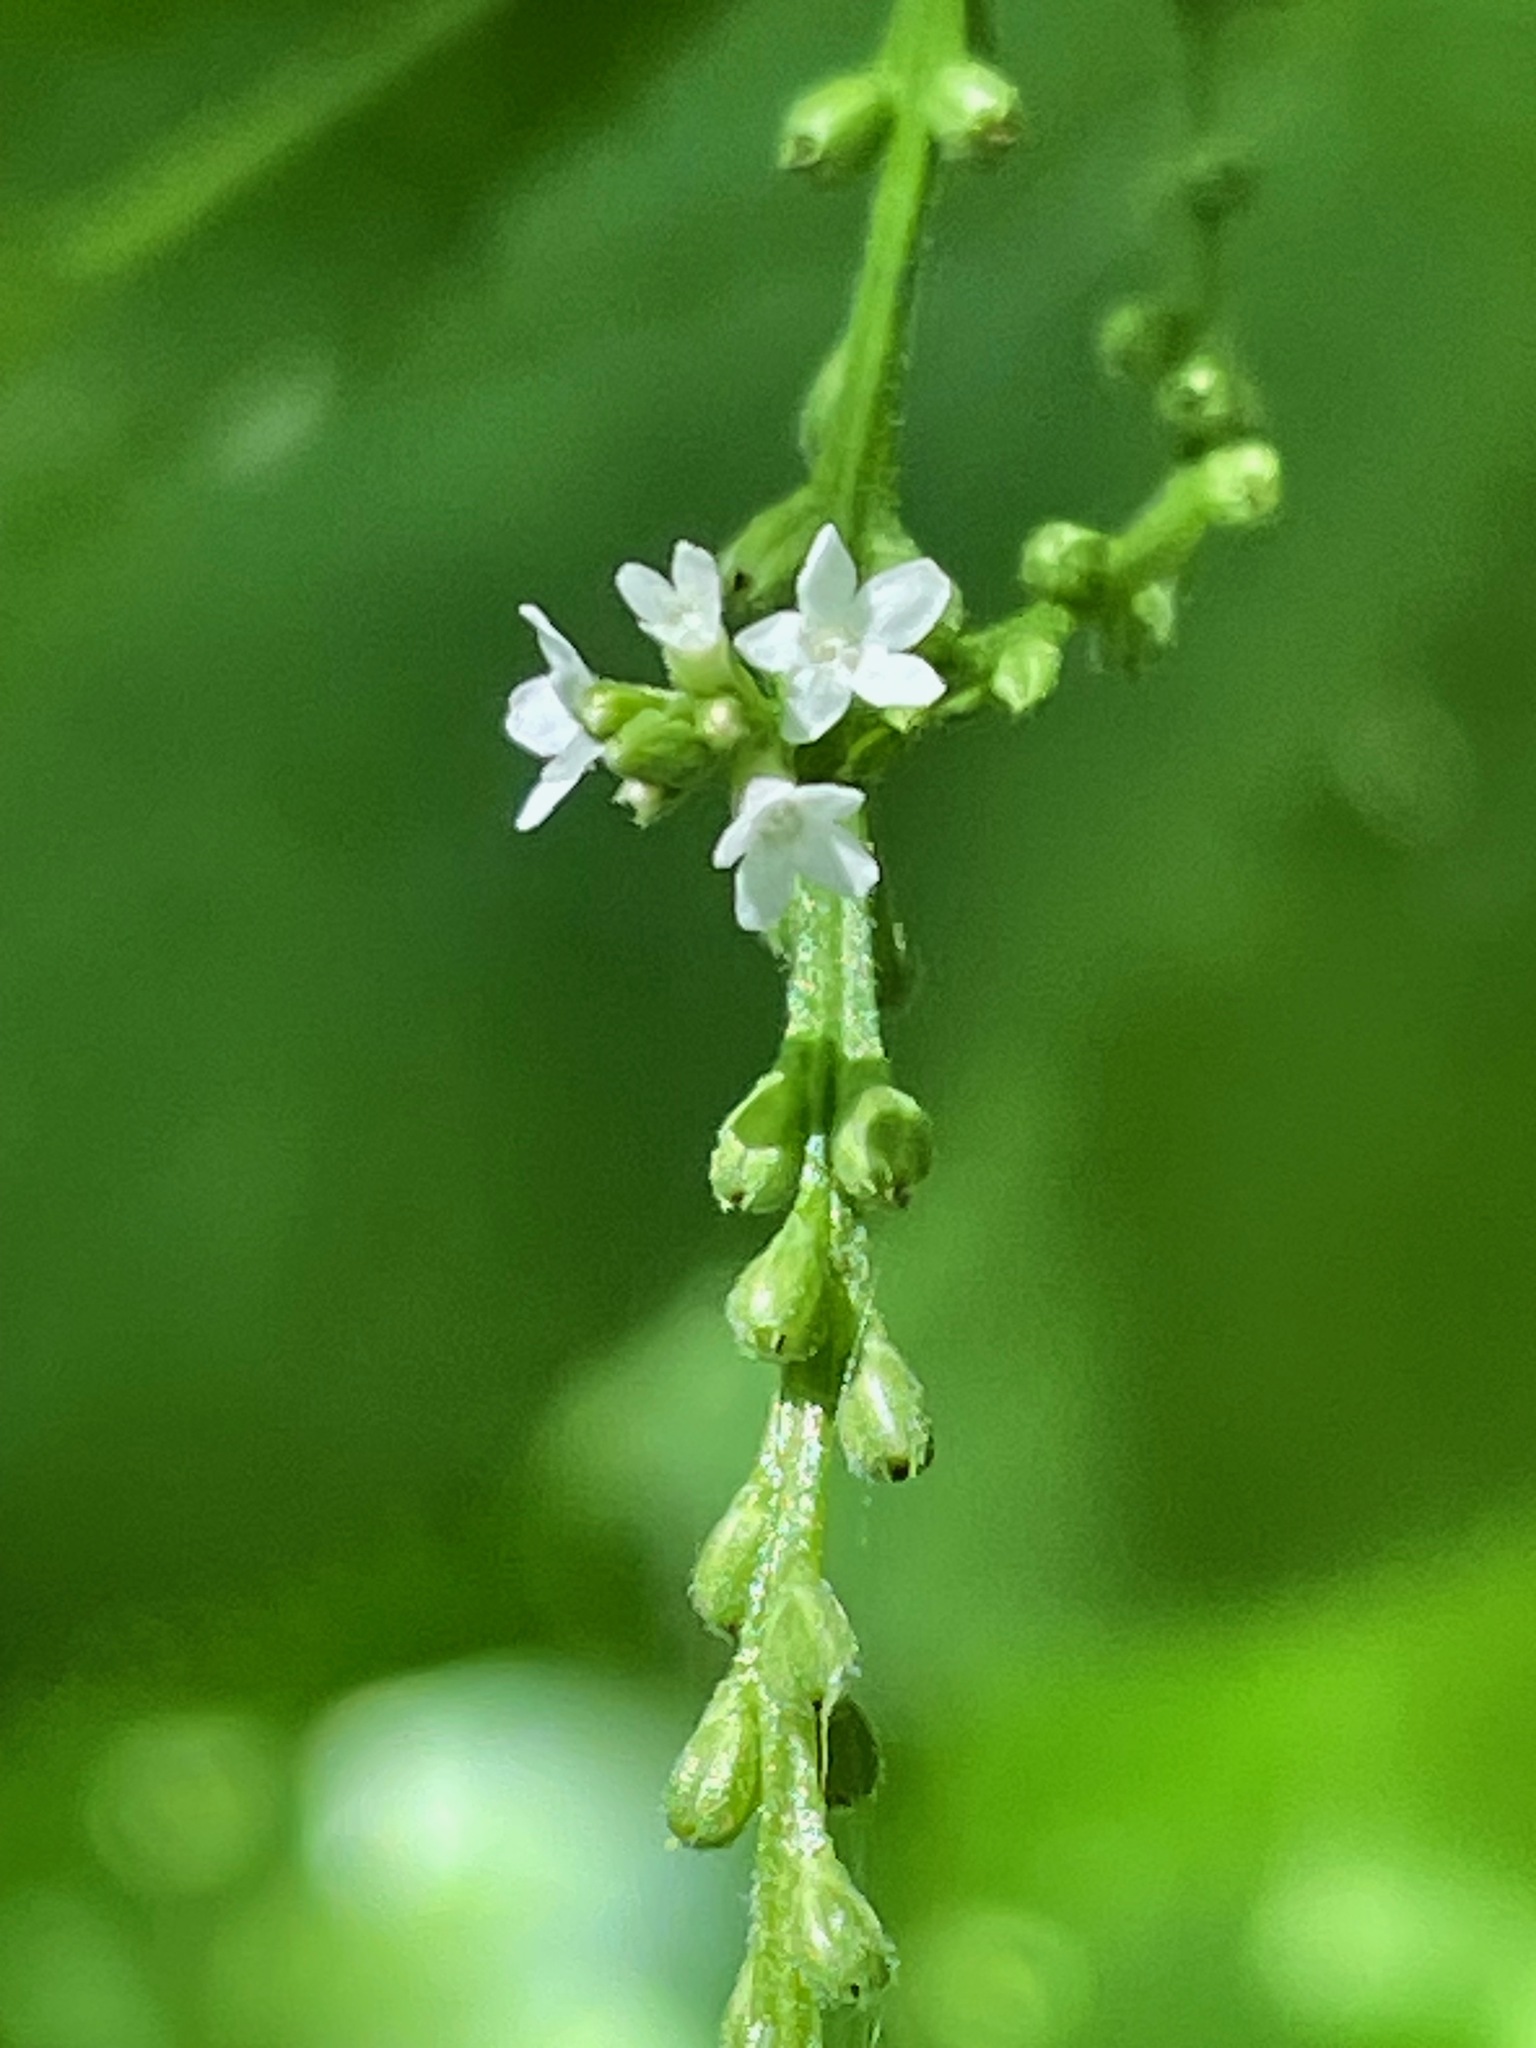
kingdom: Plantae
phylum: Tracheophyta
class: Magnoliopsida
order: Lamiales
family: Verbenaceae
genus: Verbena
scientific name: Verbena urticifolia
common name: Nettle-leaved vervain
